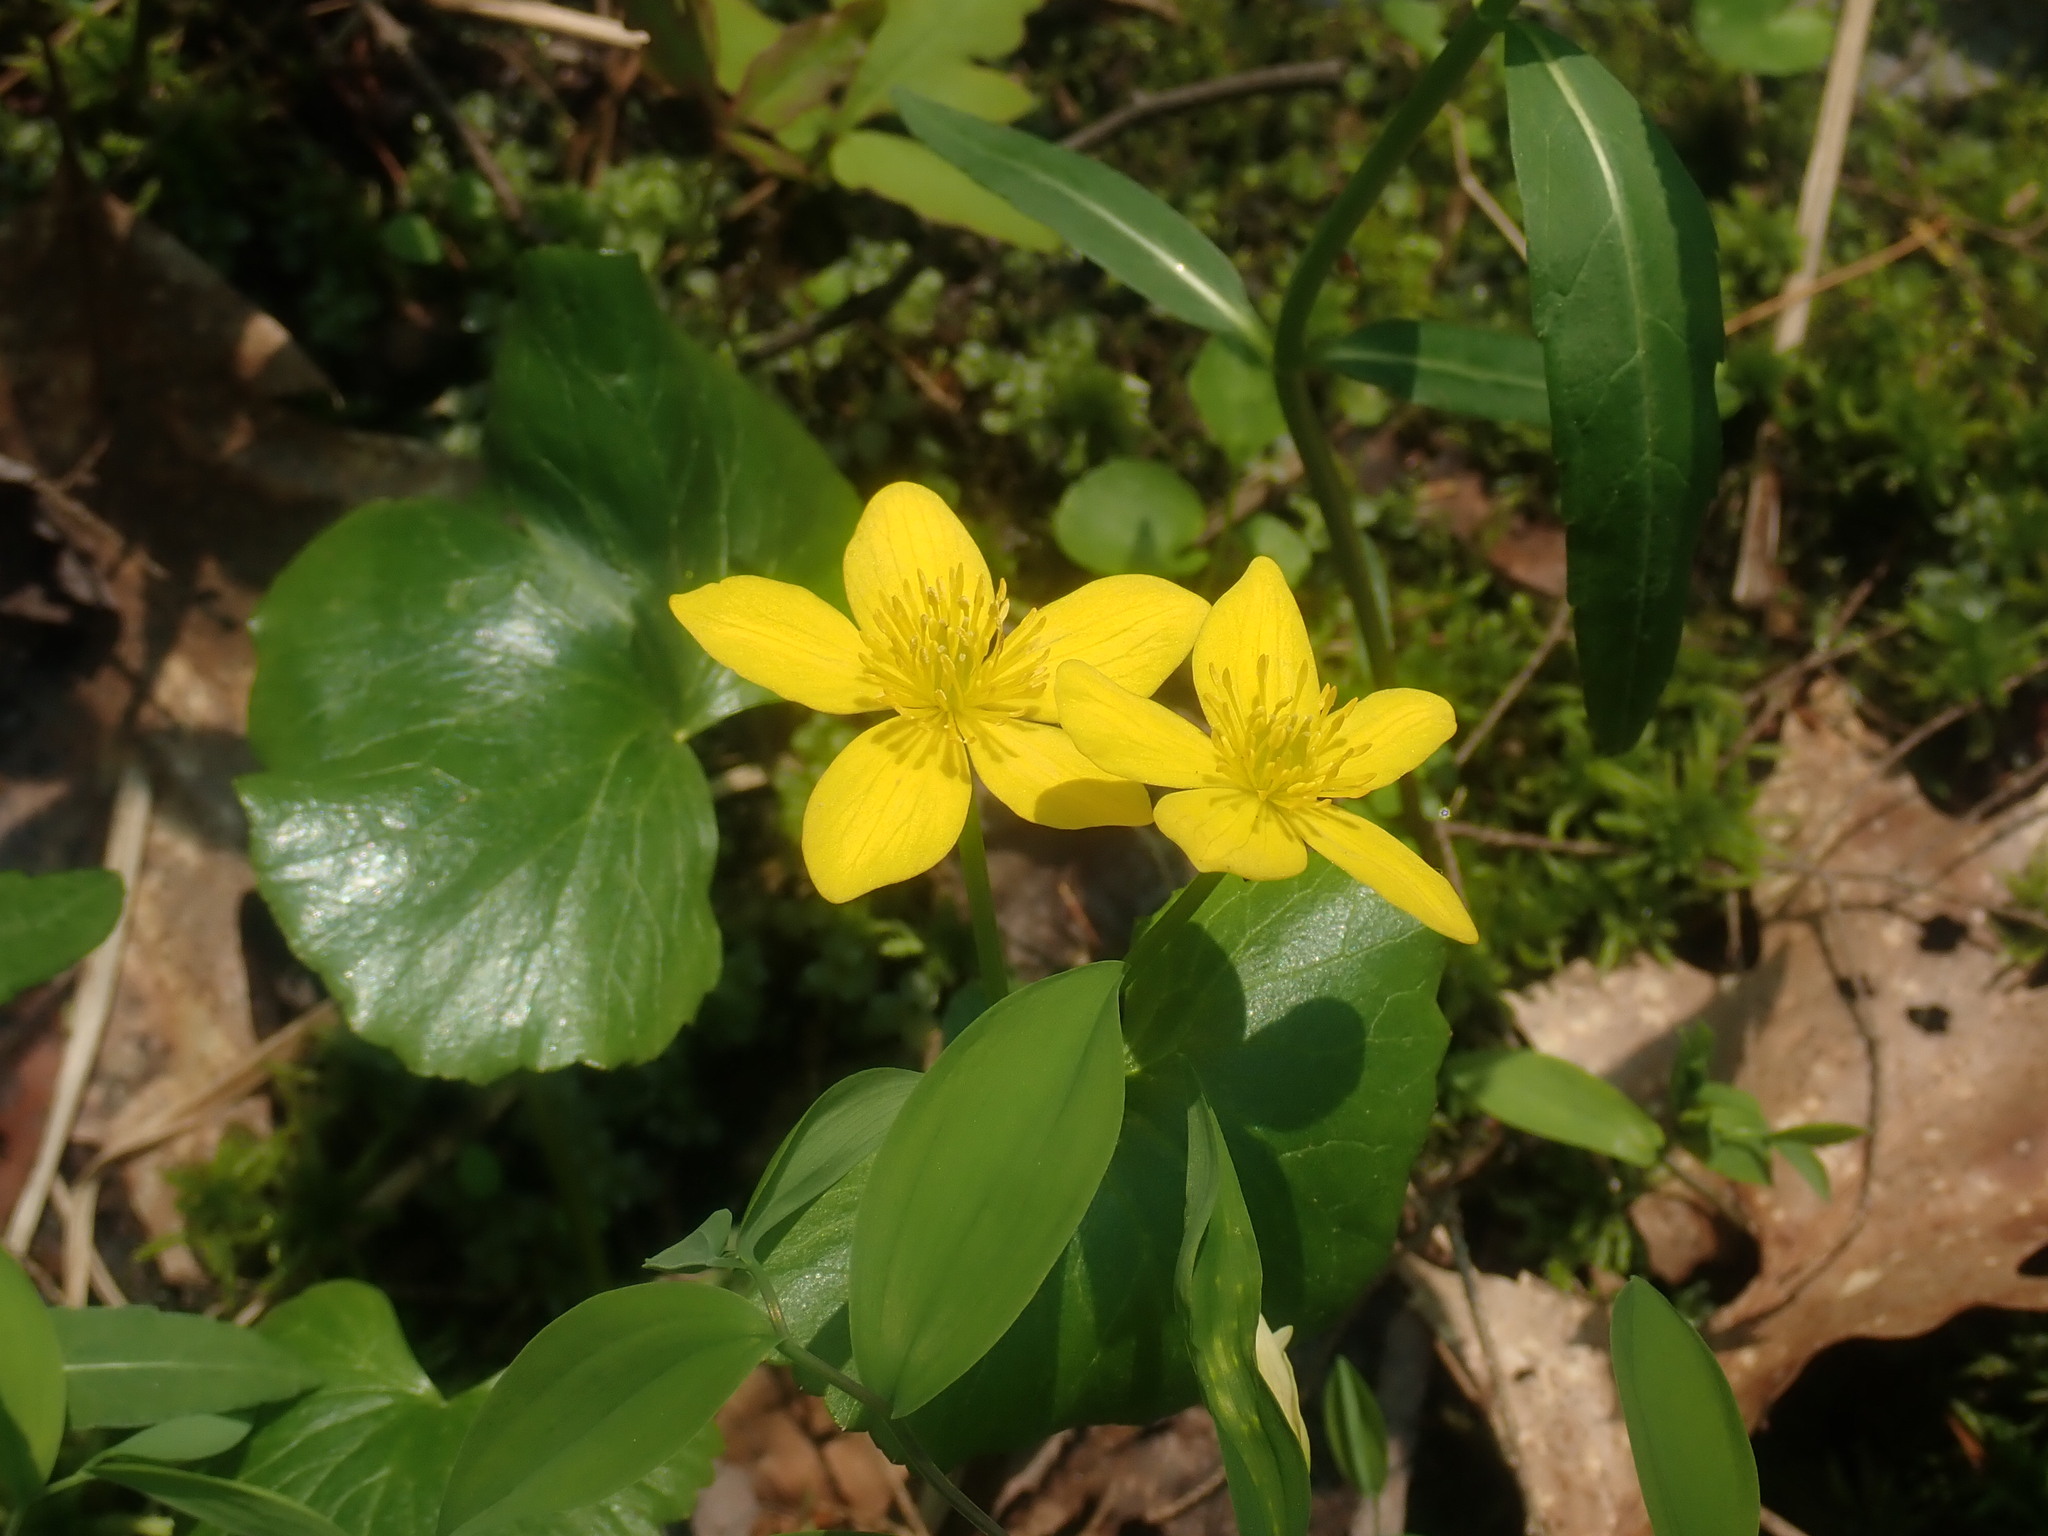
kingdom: Plantae
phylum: Tracheophyta
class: Magnoliopsida
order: Ranunculales
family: Ranunculaceae
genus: Caltha
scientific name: Caltha palustris
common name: Marsh marigold
